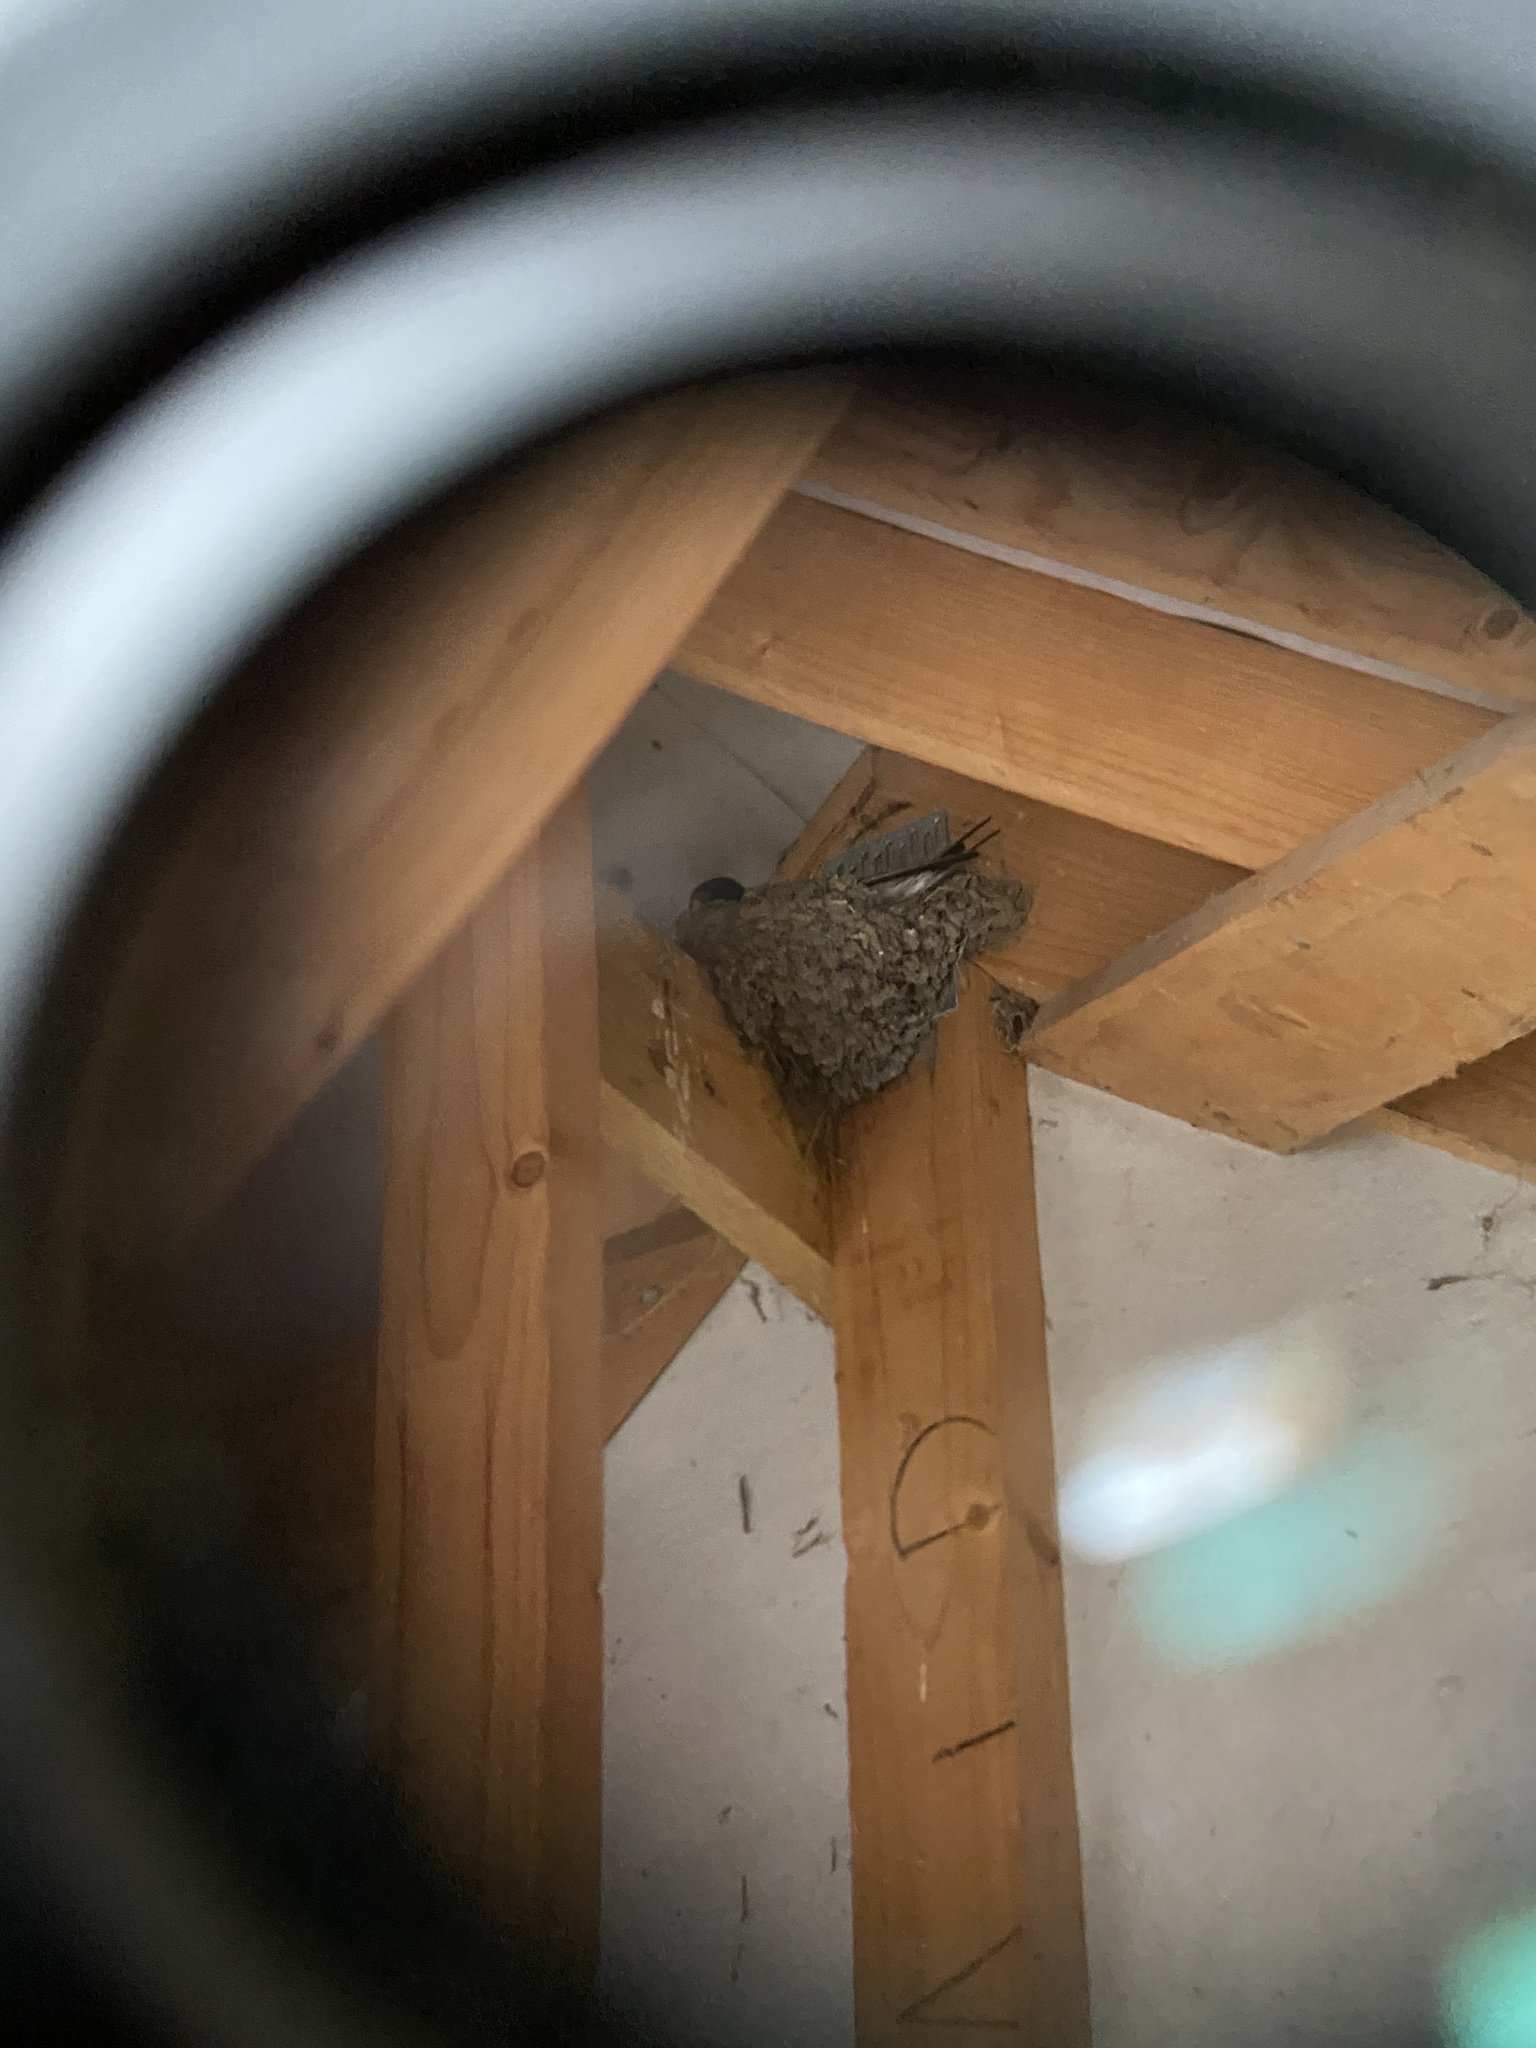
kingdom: Animalia
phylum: Chordata
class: Aves
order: Passeriformes
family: Hirundinidae
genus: Hirundo
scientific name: Hirundo rustica
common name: Barn swallow
